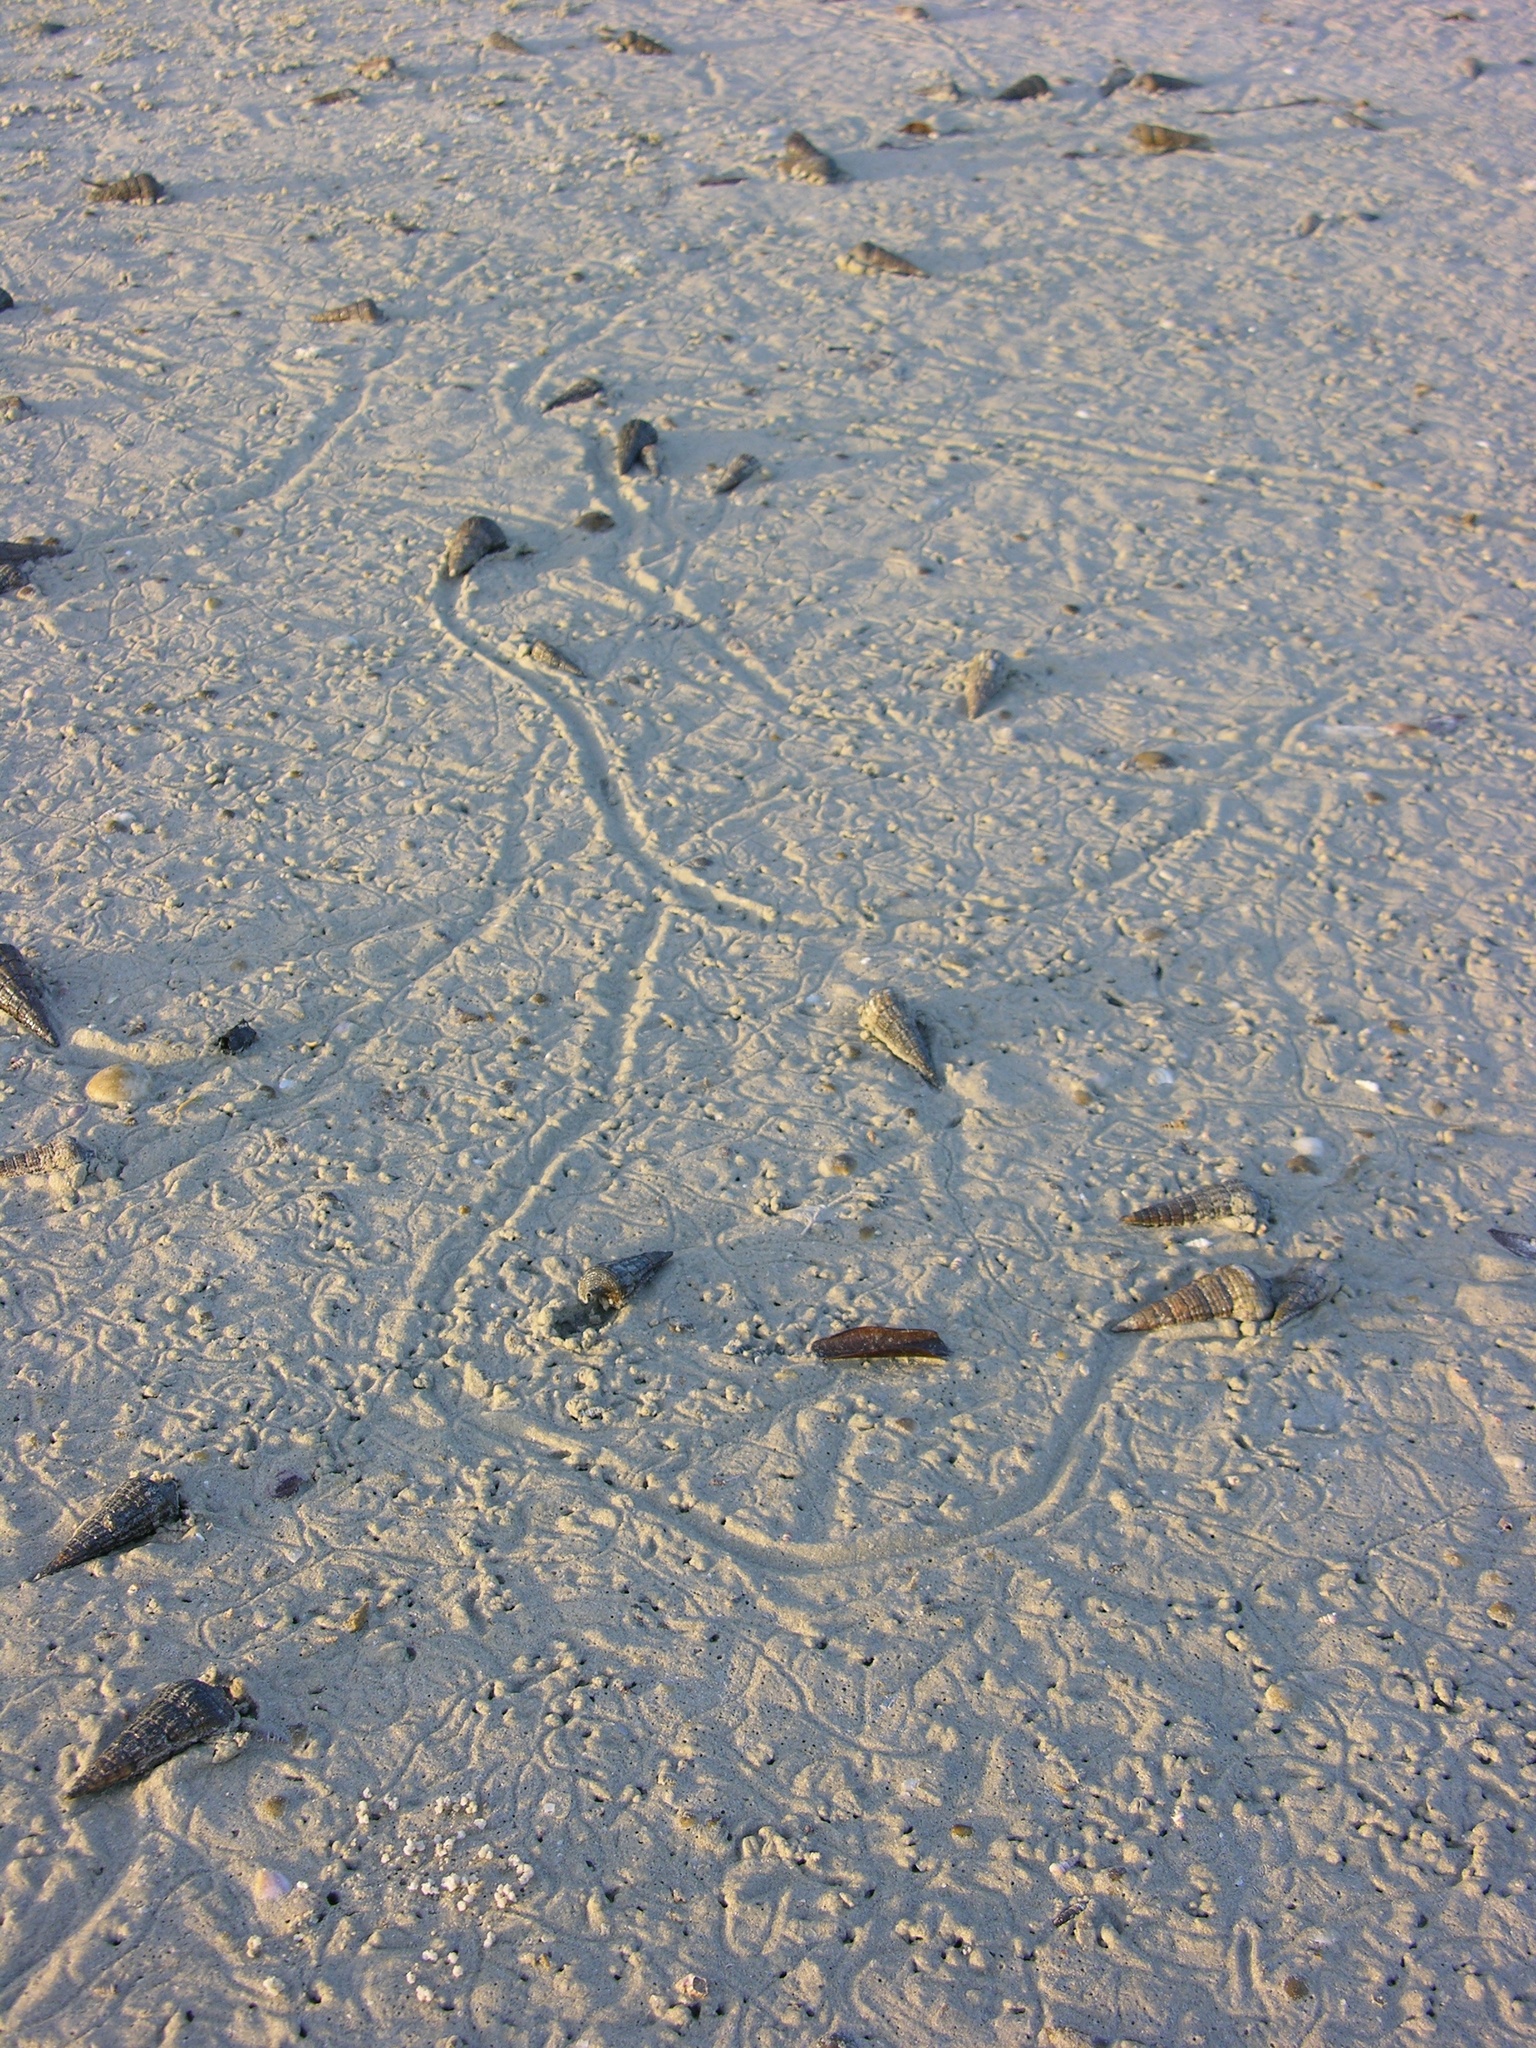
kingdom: Animalia
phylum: Mollusca
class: Gastropoda
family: Potamididae
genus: Terebralia
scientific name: Terebralia palustris
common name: Mangrove whelk
